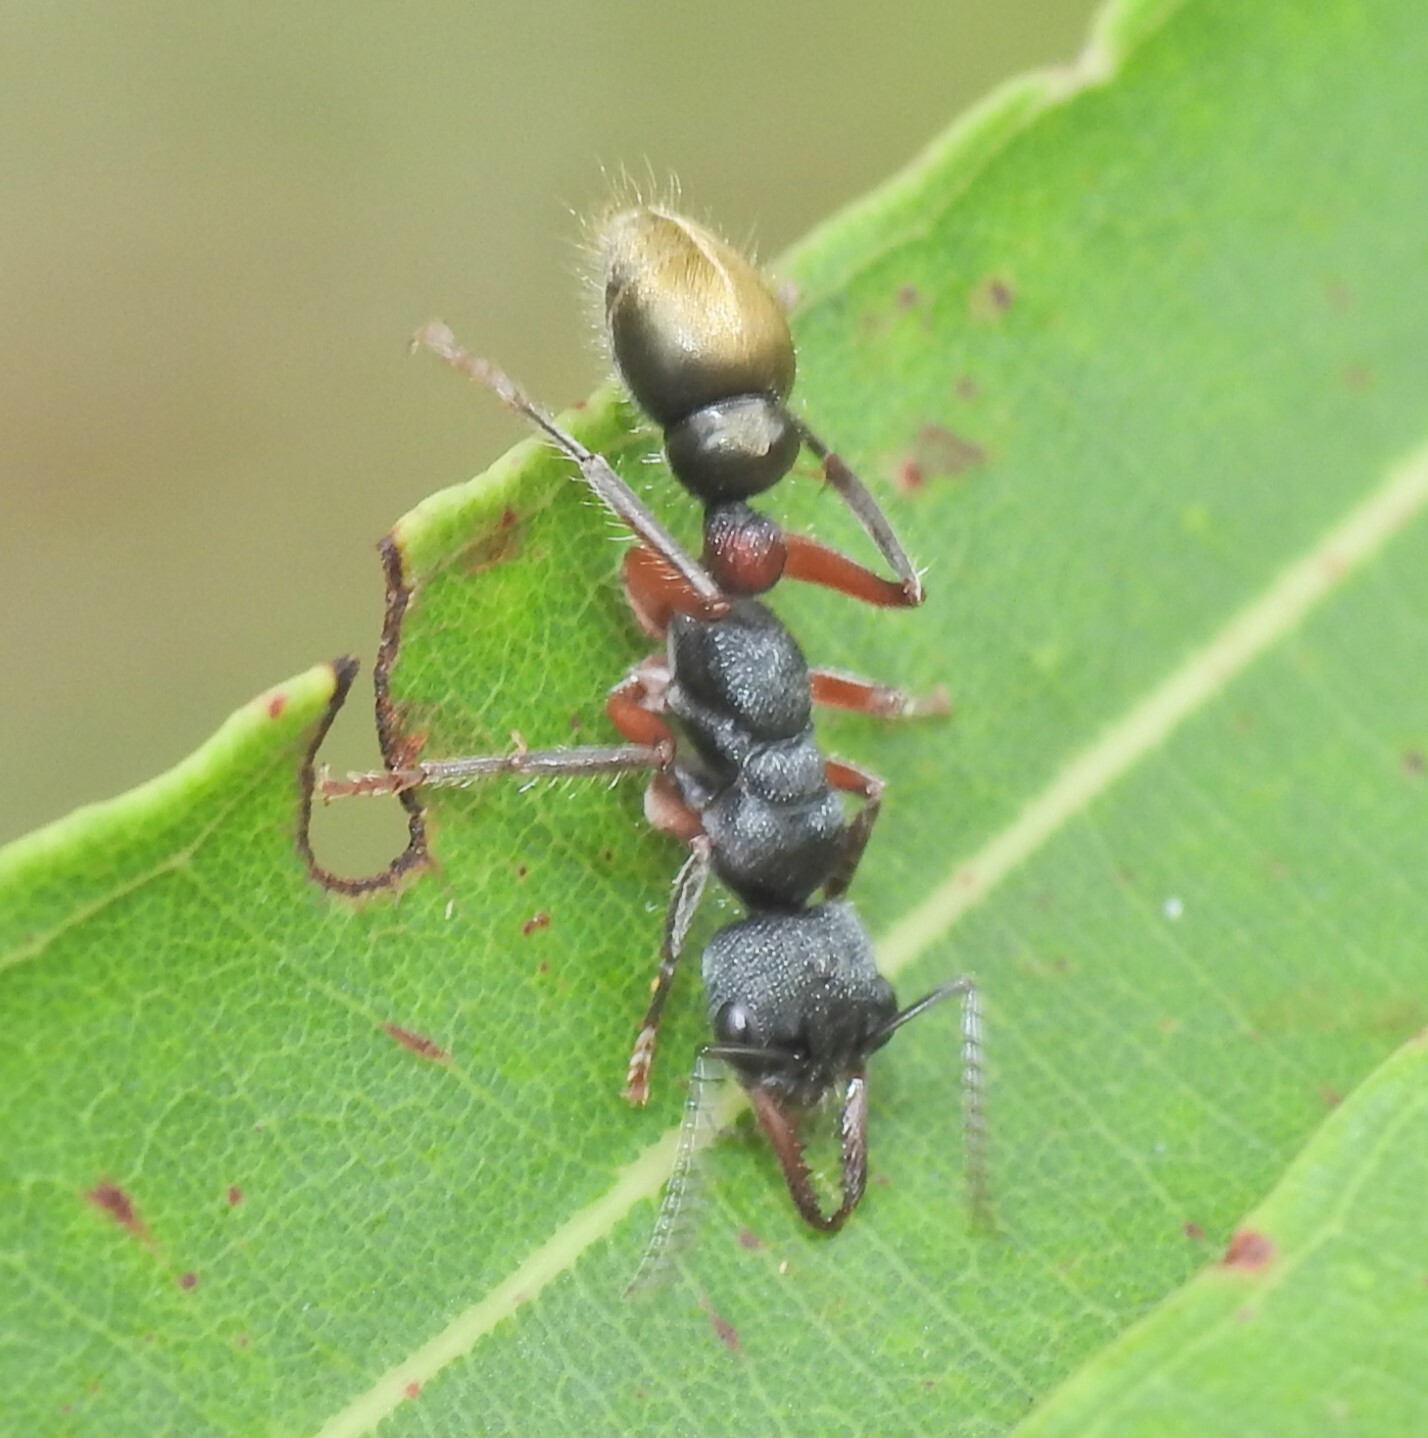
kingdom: Animalia
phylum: Arthropoda
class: Insecta
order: Hymenoptera
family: Formicidae
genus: Myrmecia
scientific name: Myrmecia chrysogaster
